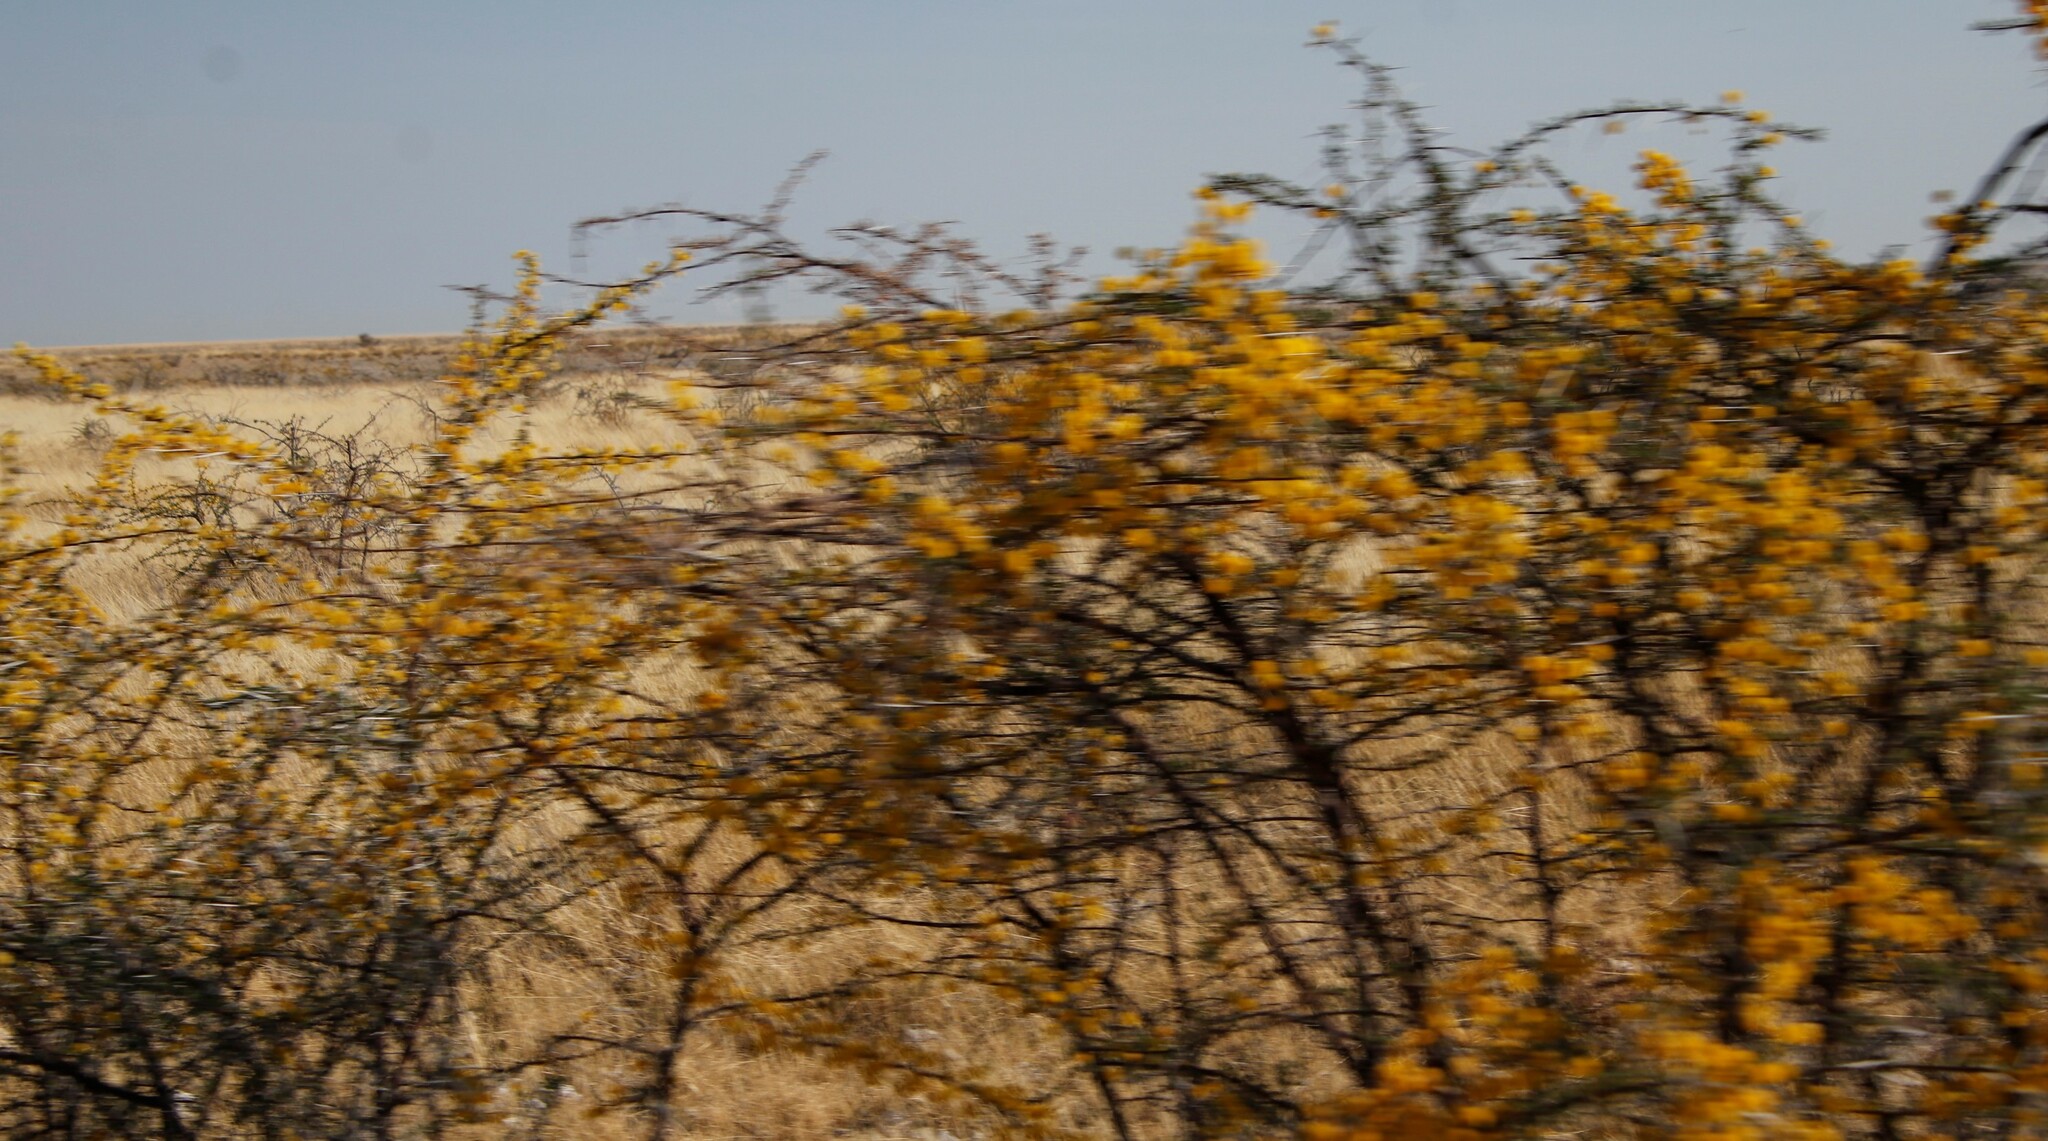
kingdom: Plantae
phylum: Tracheophyta
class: Magnoliopsida
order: Fabales
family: Fabaceae
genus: Vachellia
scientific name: Vachellia nebrownii
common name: Water acacia
